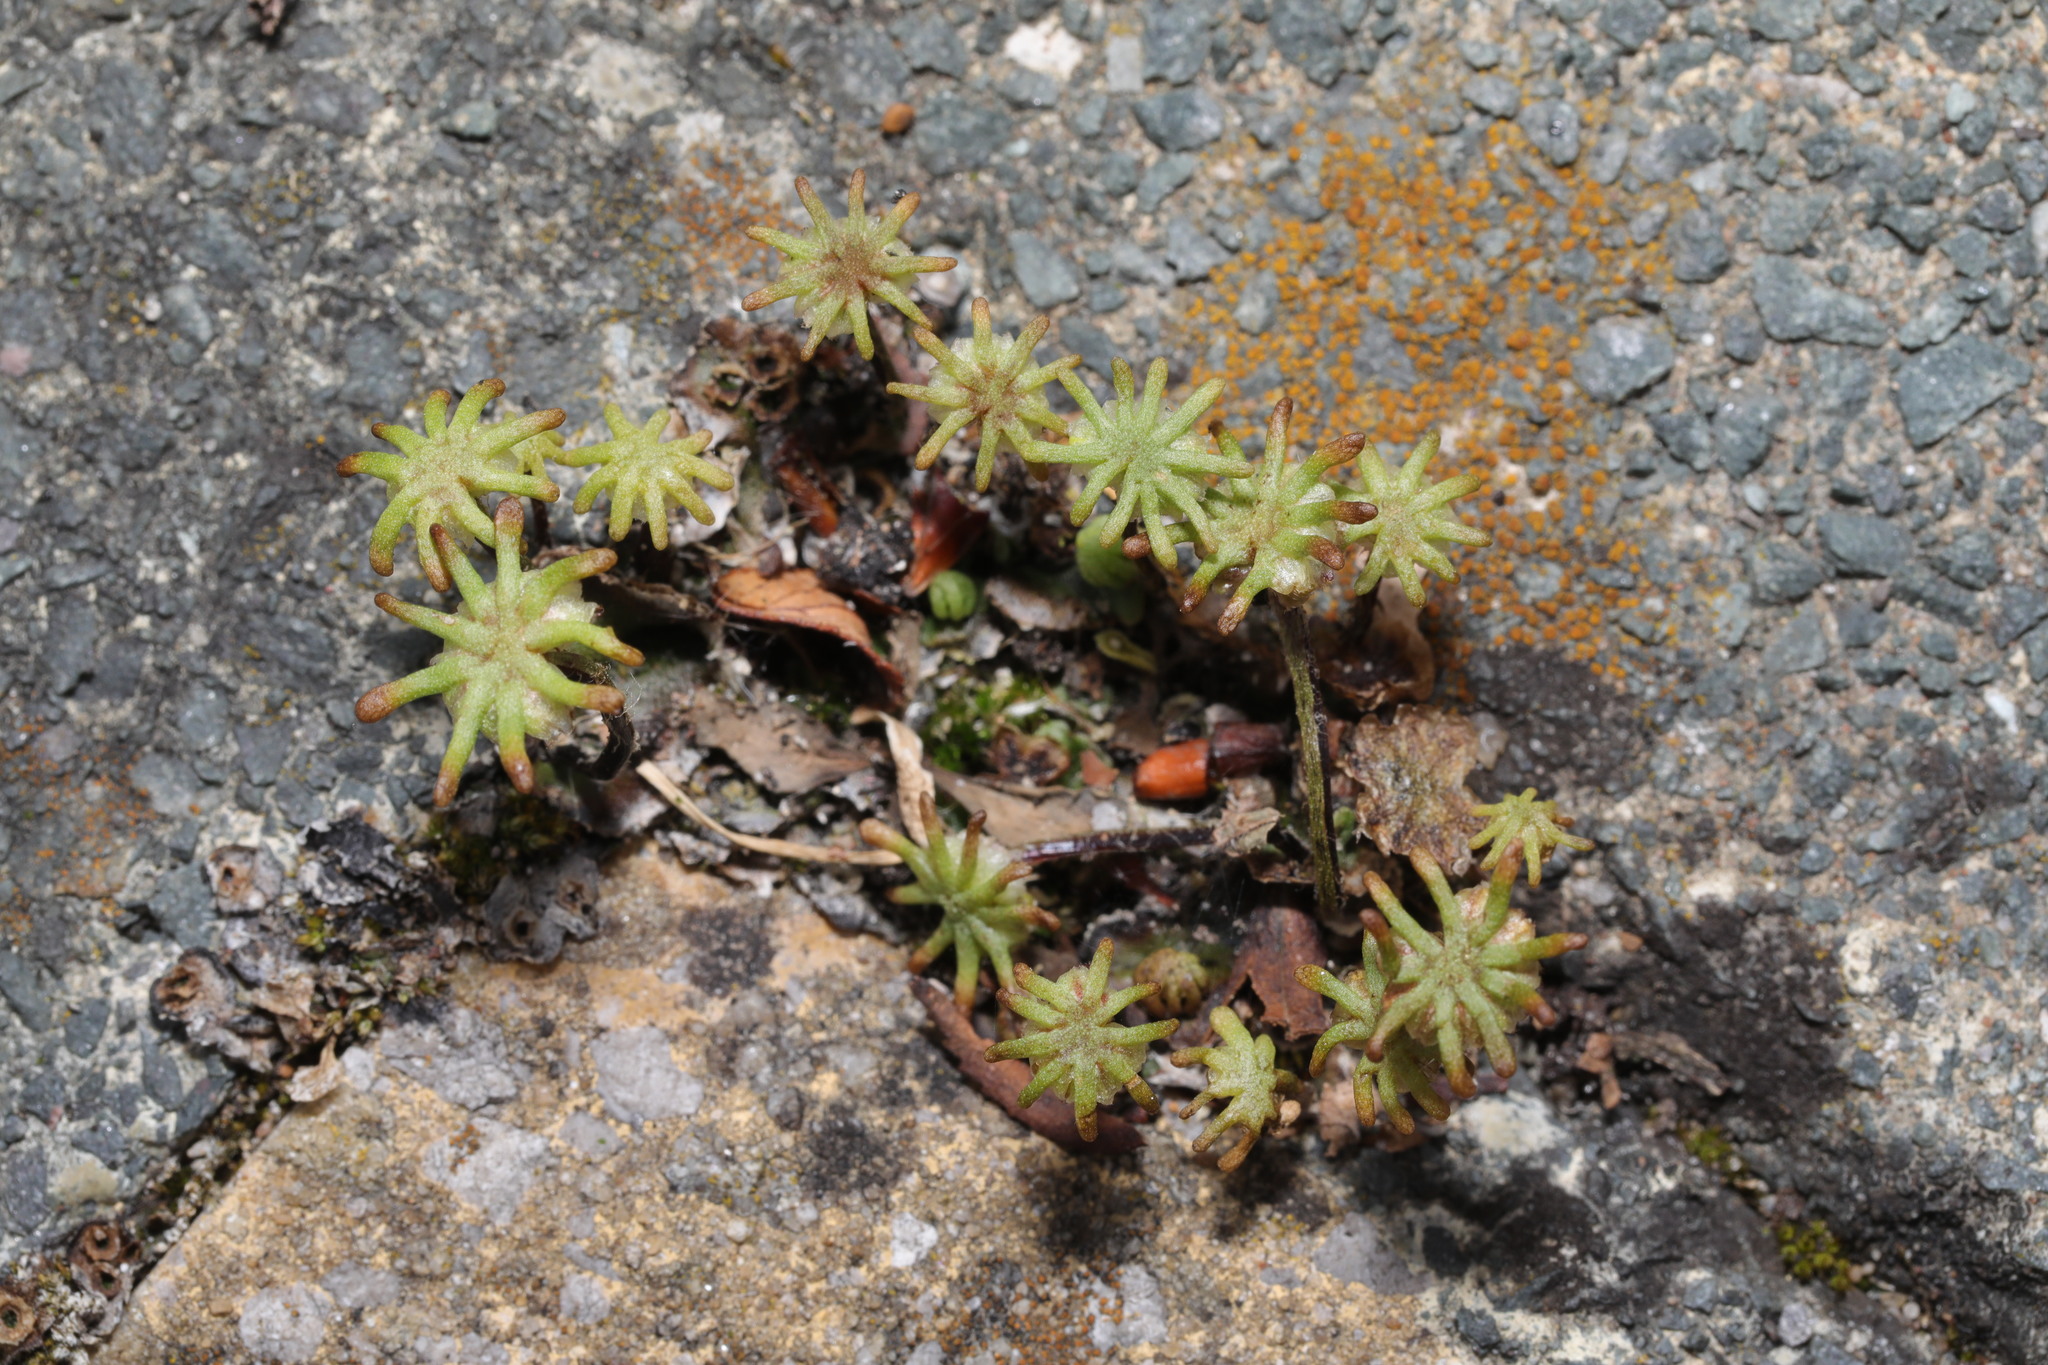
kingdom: Plantae
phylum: Marchantiophyta
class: Marchantiopsida
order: Marchantiales
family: Marchantiaceae
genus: Marchantia
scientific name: Marchantia polymorpha
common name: Common liverwort
